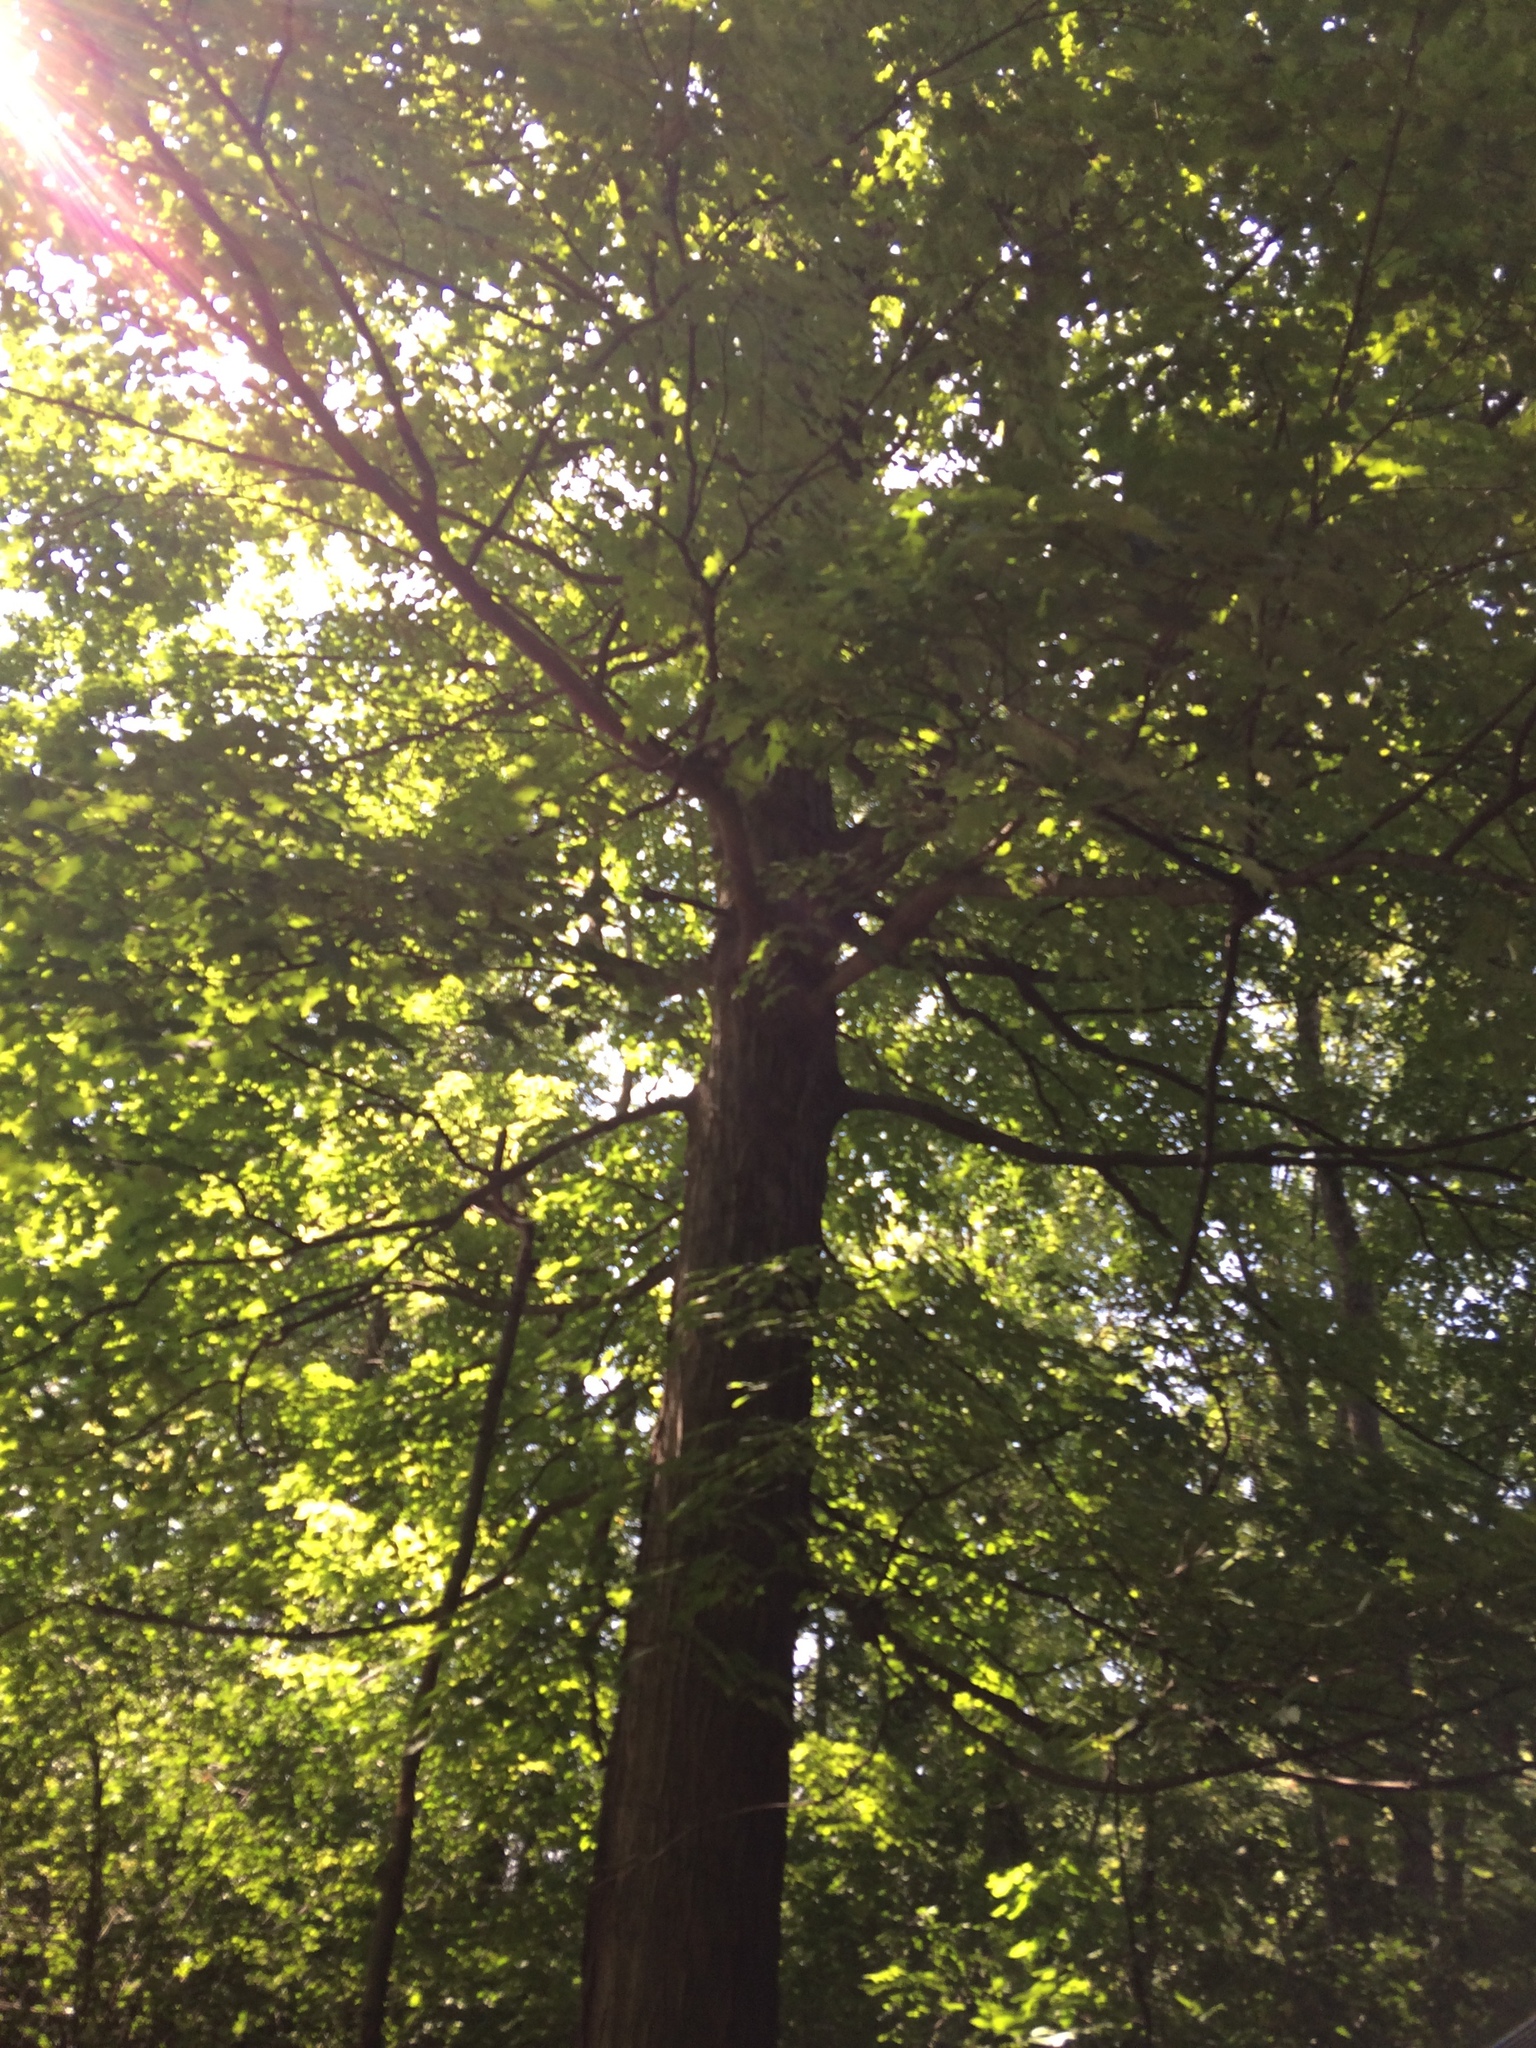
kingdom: Plantae
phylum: Tracheophyta
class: Magnoliopsida
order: Sapindales
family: Sapindaceae
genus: Acer
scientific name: Acer saccharum
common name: Sugar maple
